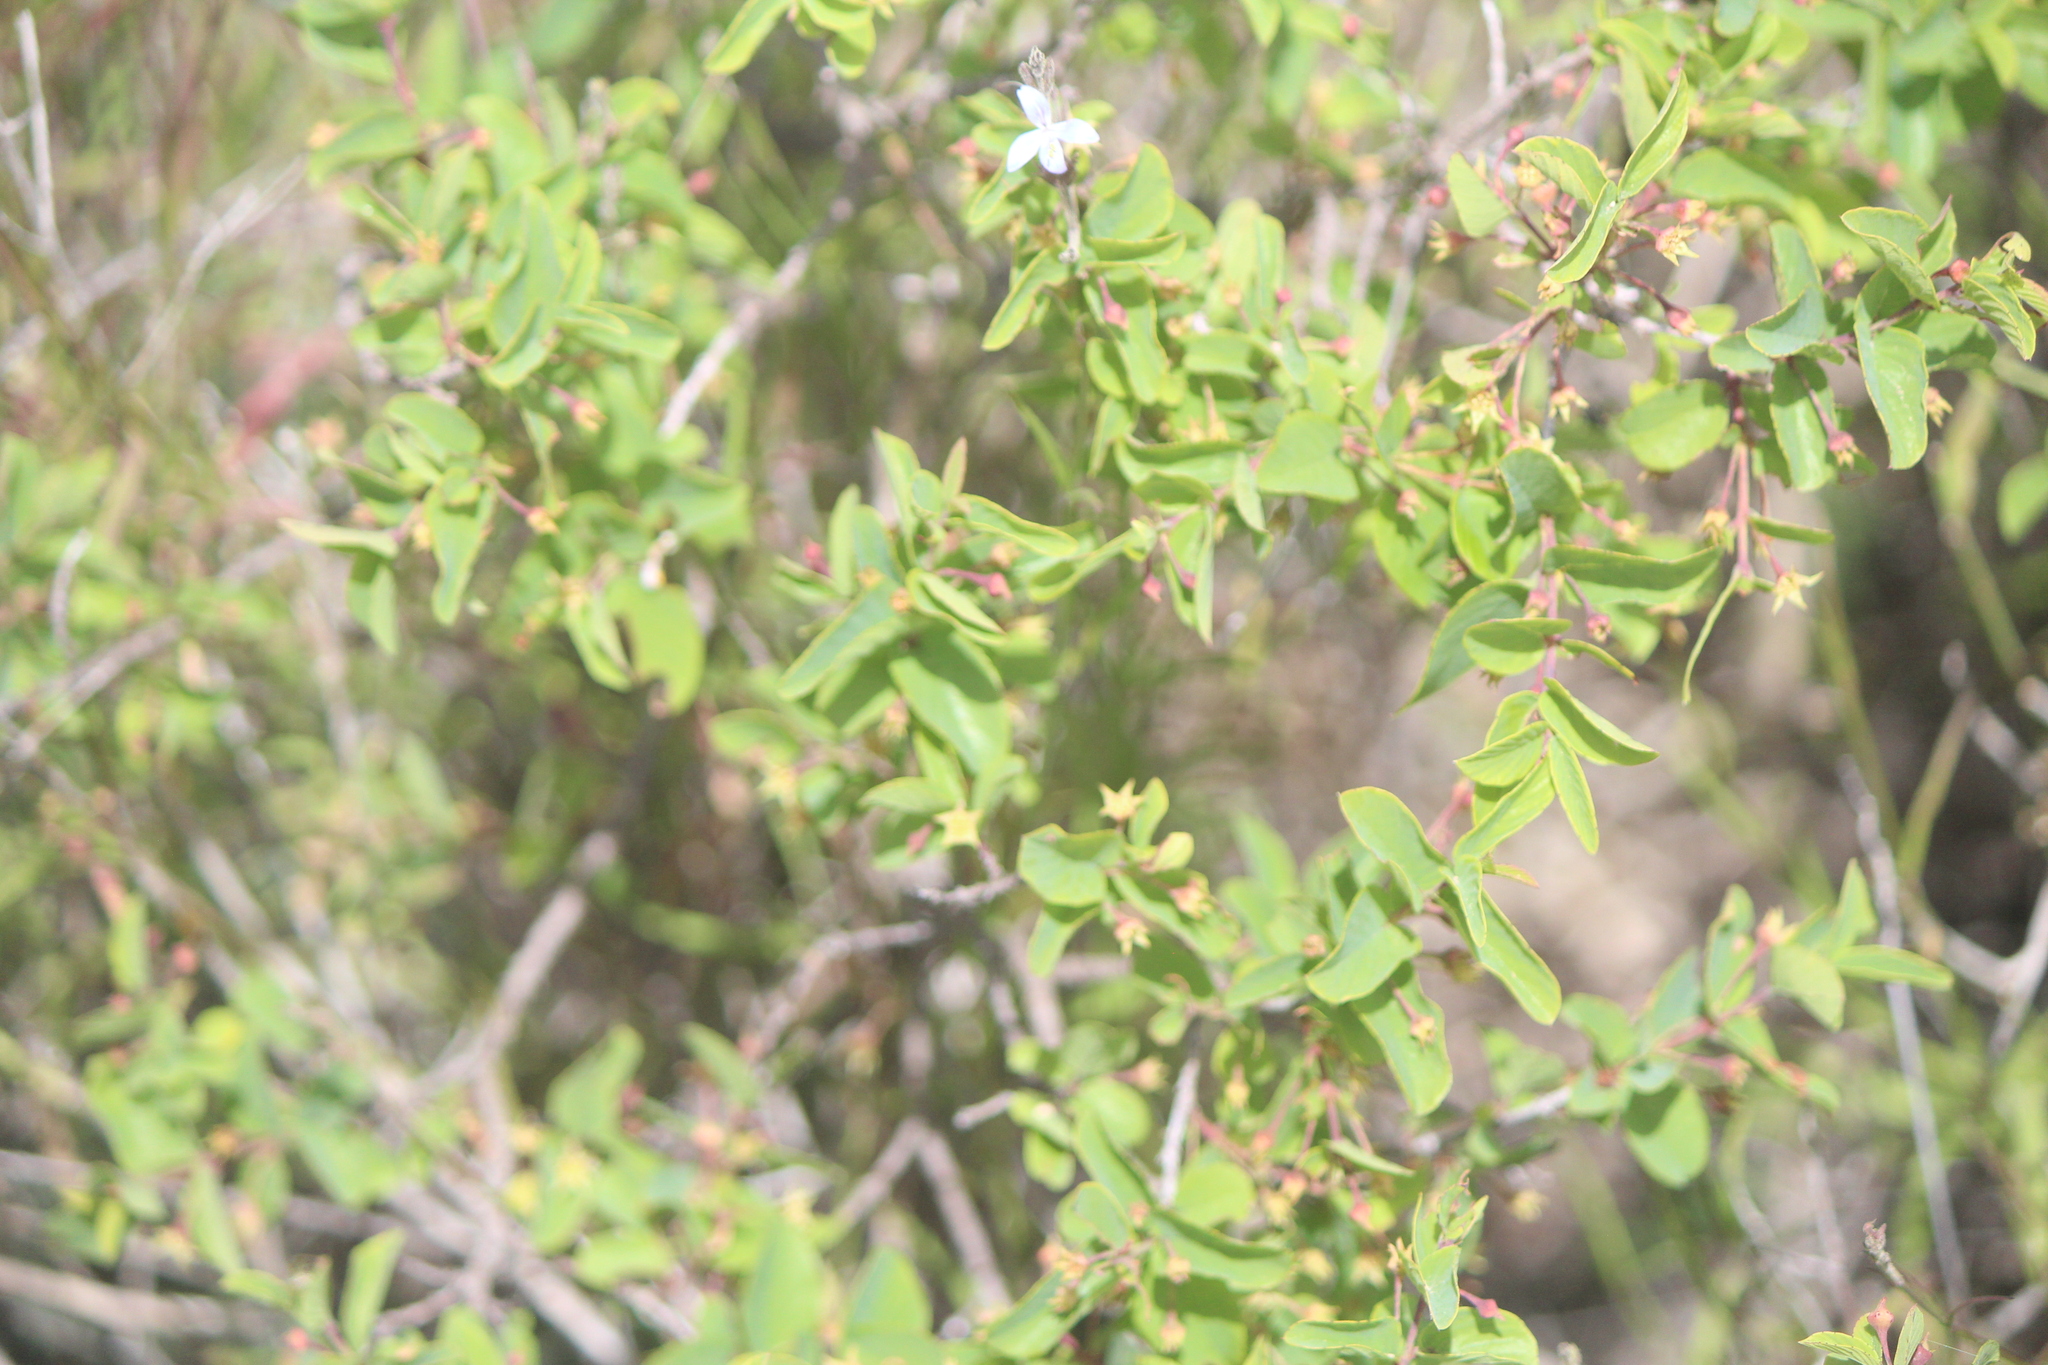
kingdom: Plantae
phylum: Tracheophyta
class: Magnoliopsida
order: Lamiales
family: Acanthaceae
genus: Carlowrightia
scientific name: Carlowrightia parviflora
